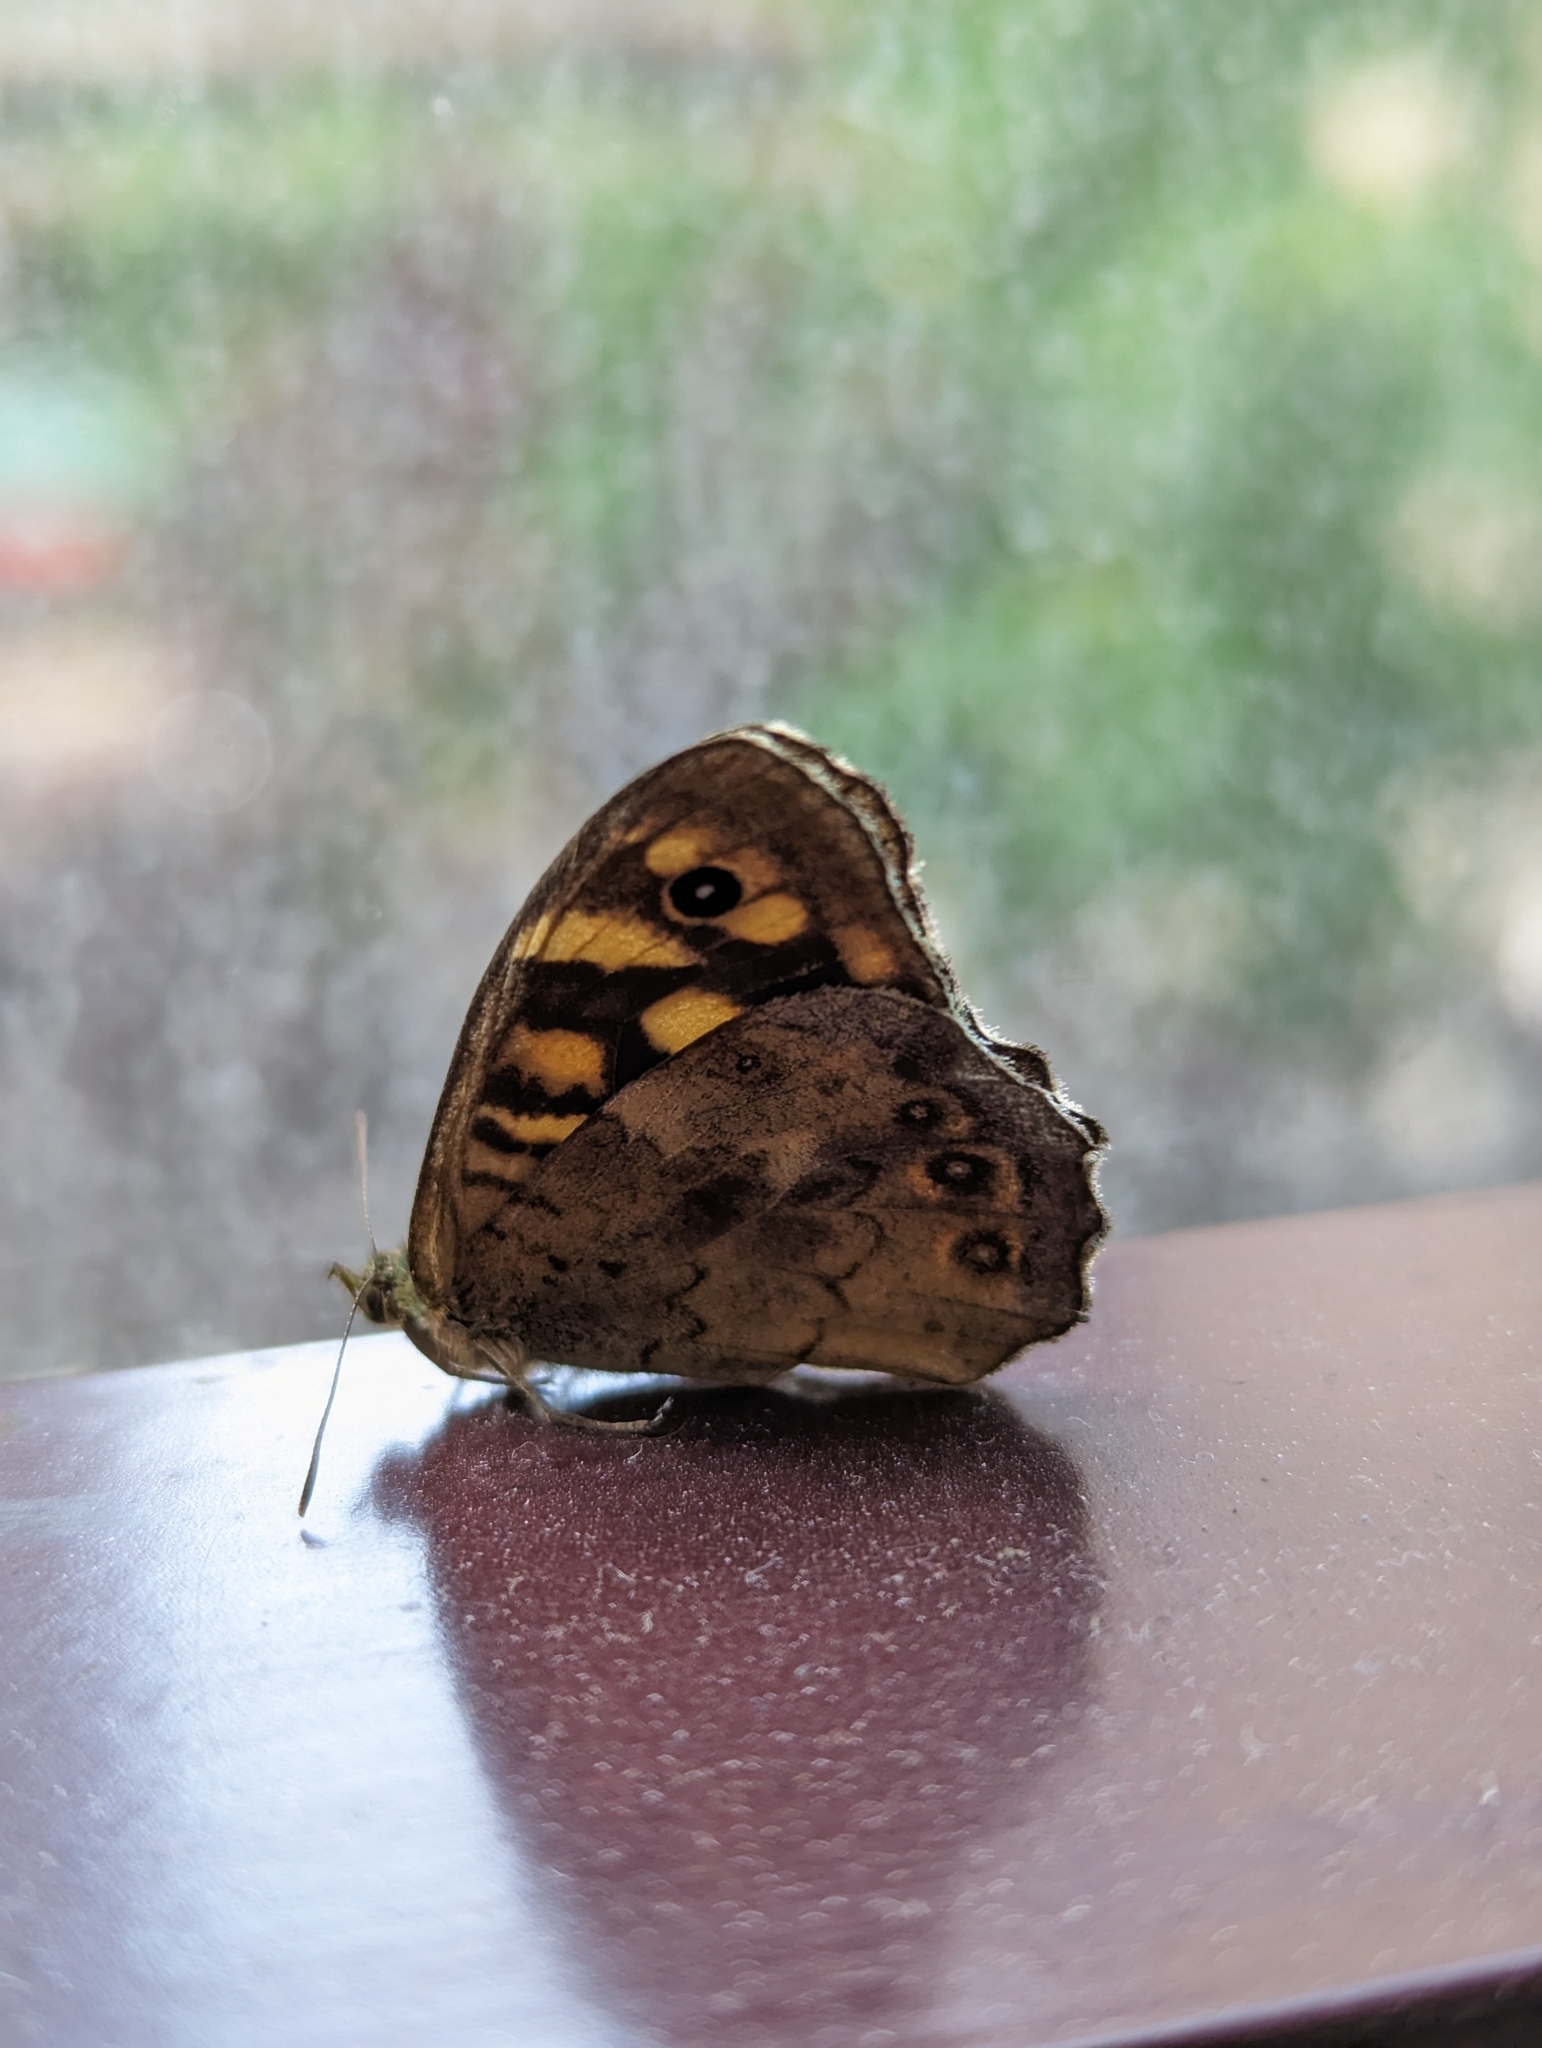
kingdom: Animalia
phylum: Arthropoda
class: Insecta
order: Lepidoptera
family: Nymphalidae
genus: Pararge
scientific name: Pararge aegeria
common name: Speckled wood
